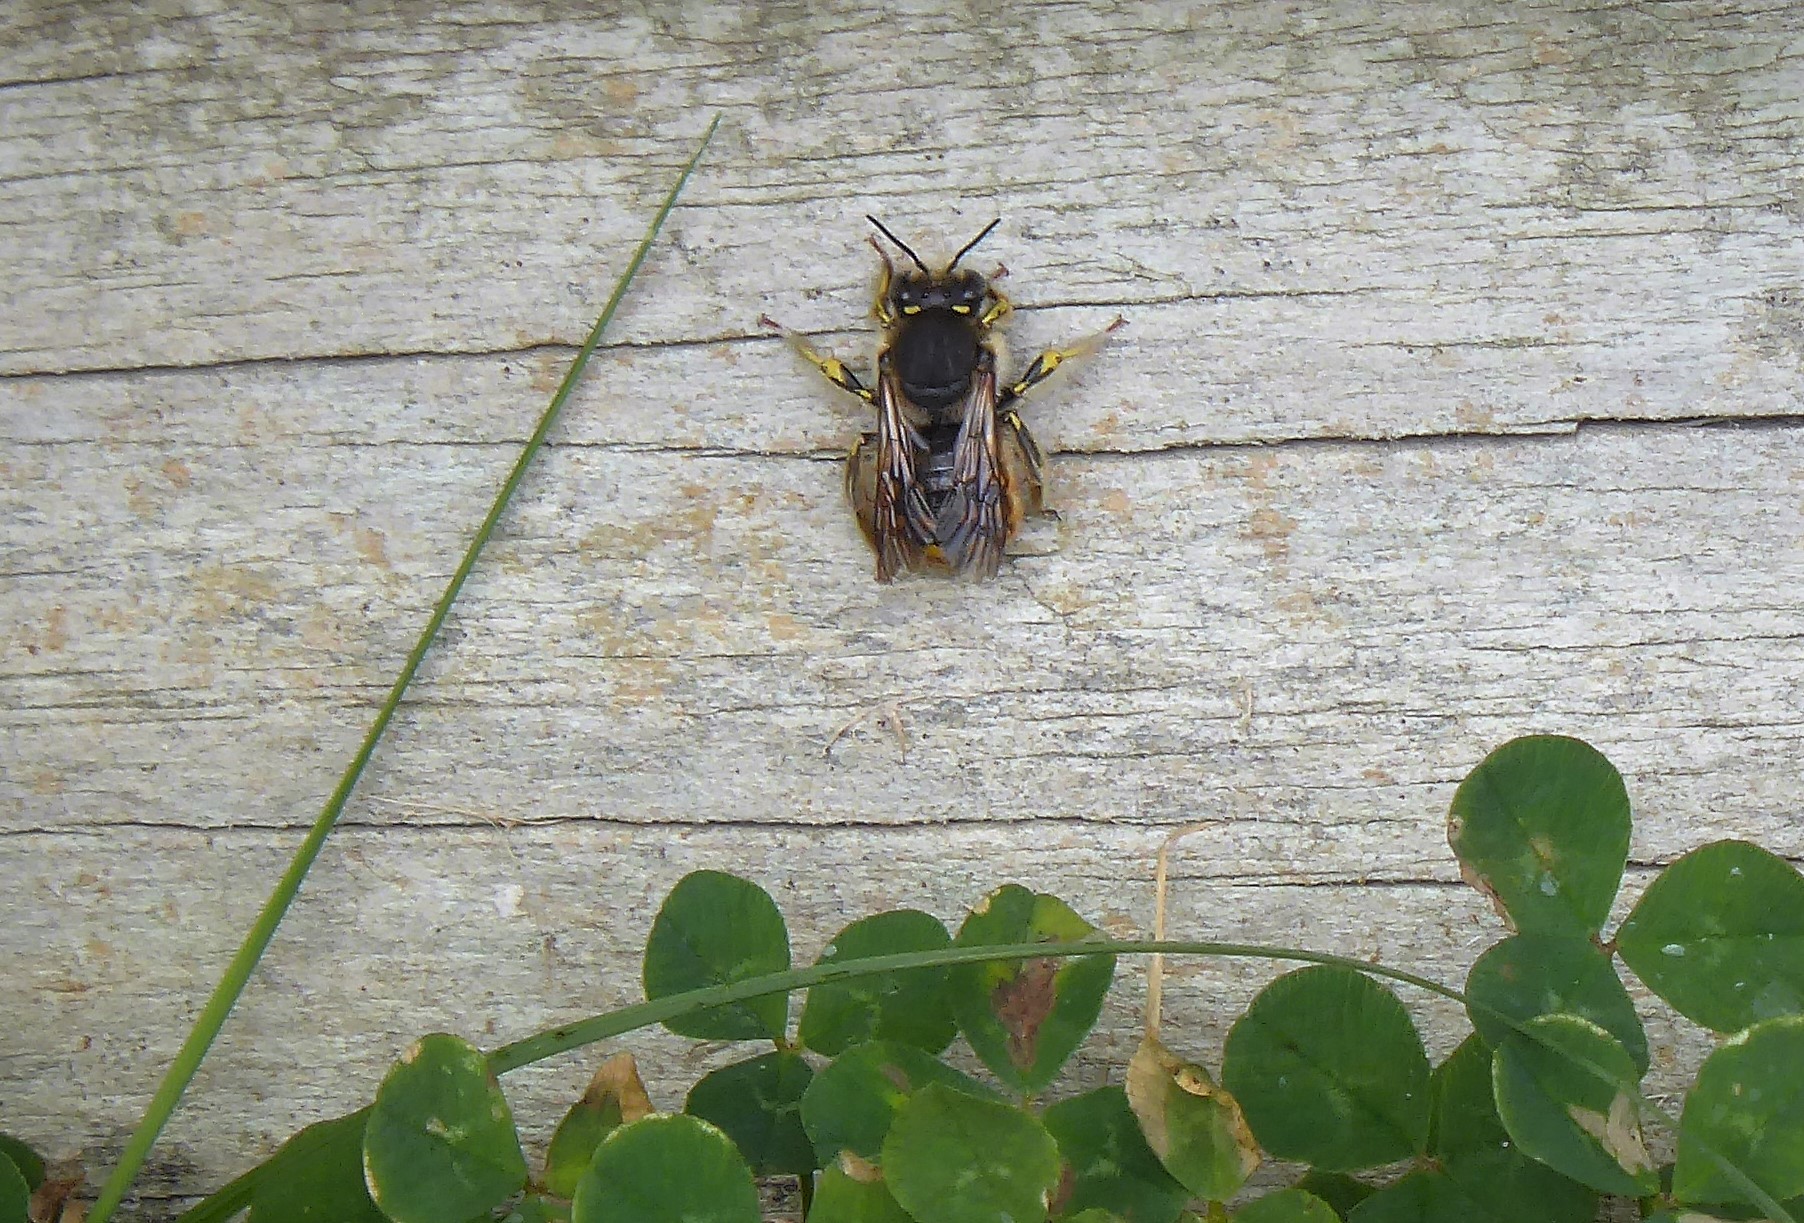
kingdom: Animalia
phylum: Arthropoda
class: Insecta
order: Hymenoptera
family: Megachilidae
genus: Anthidium
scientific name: Anthidium manicatum
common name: Wool carder bee
